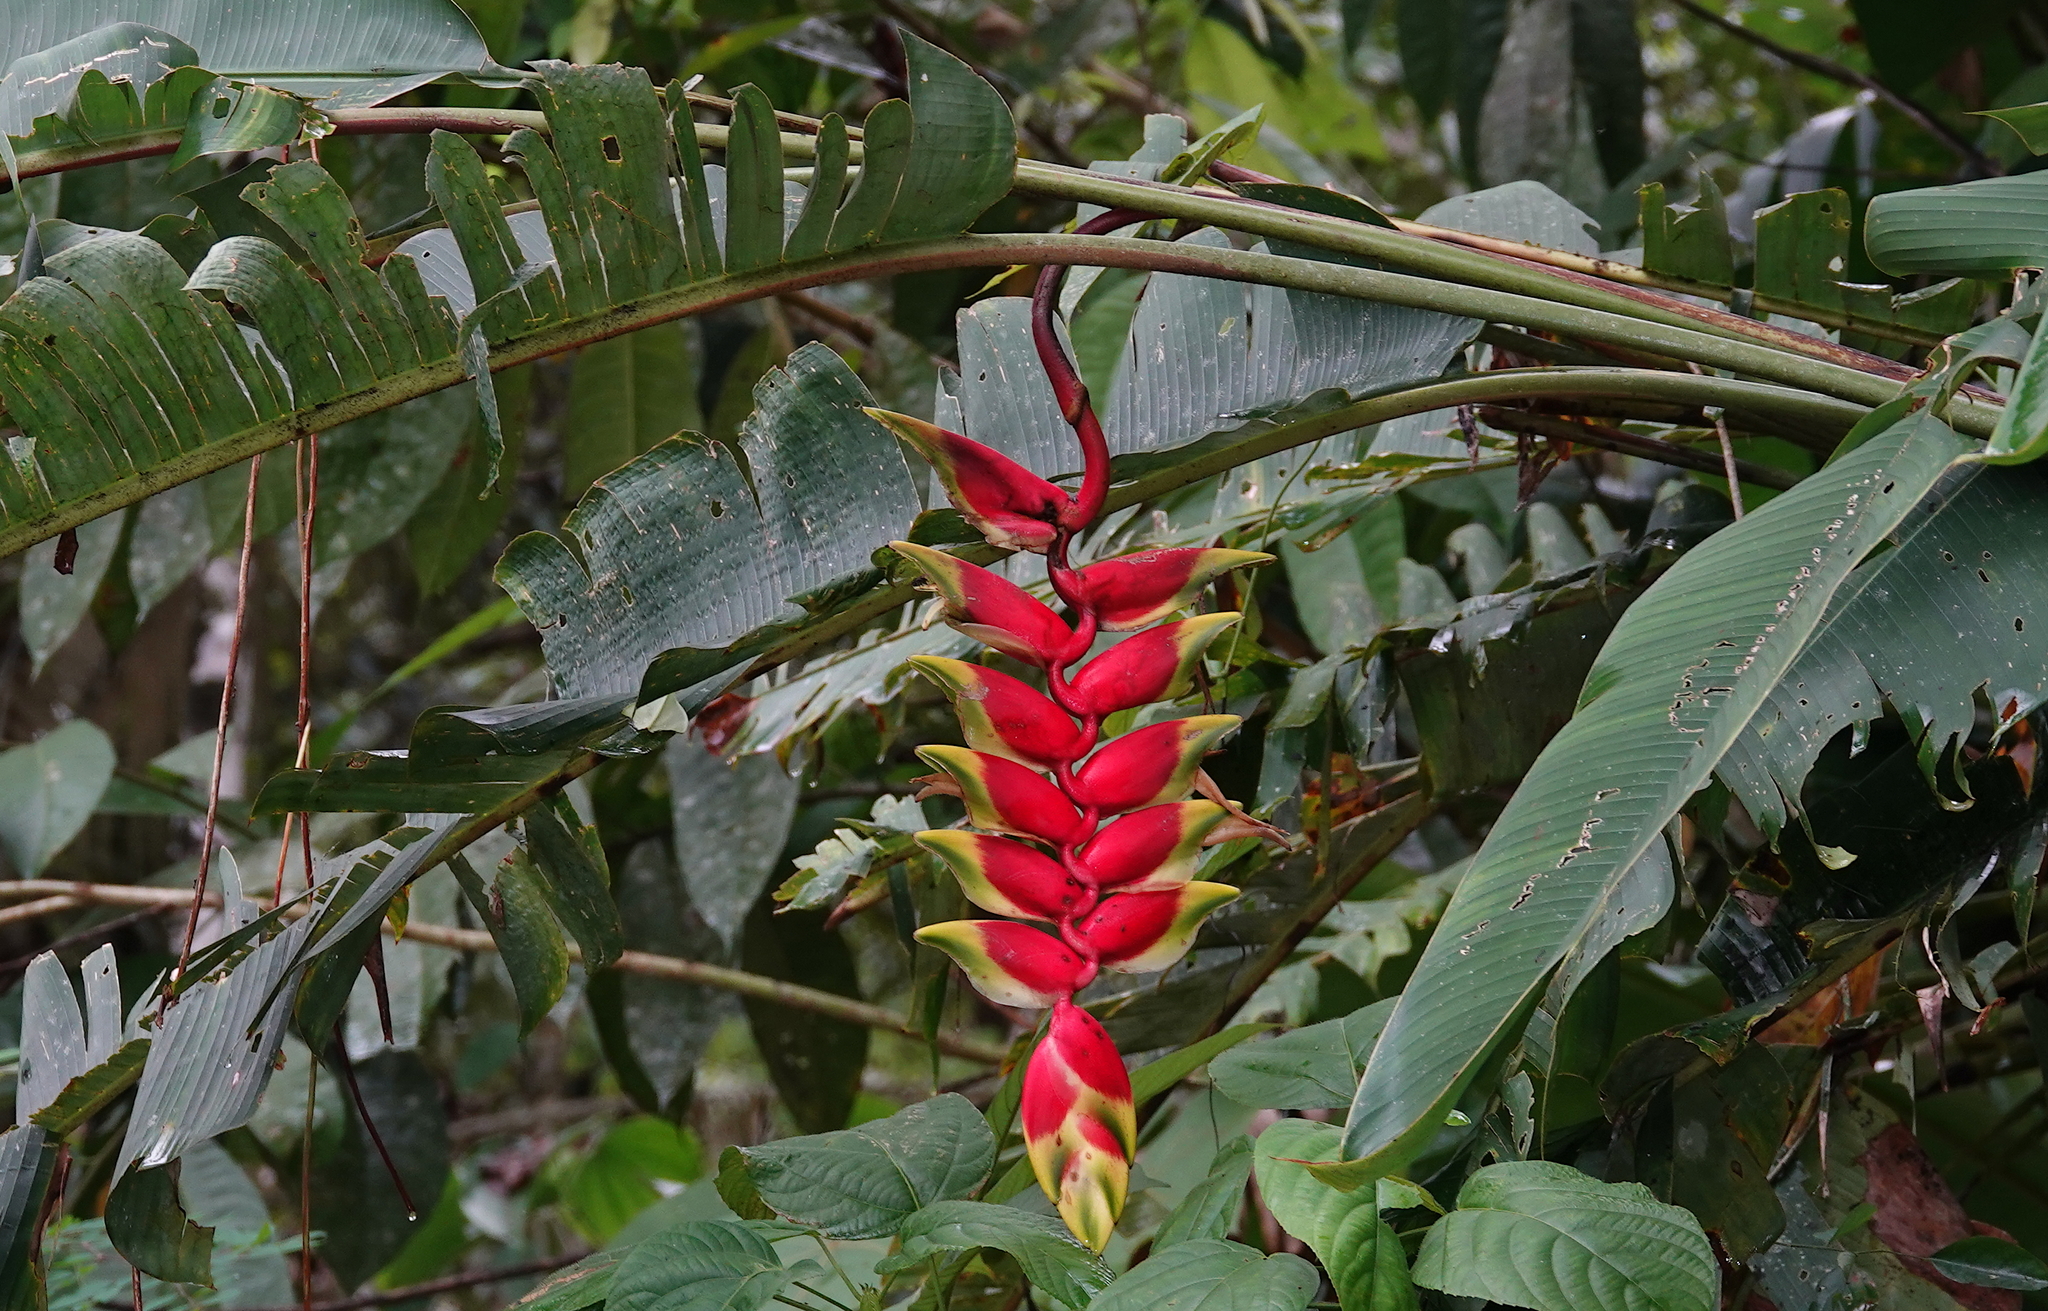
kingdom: Plantae
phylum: Tracheophyta
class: Liliopsida
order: Zingiberales
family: Heliconiaceae
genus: Heliconia
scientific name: Heliconia rostrata
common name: False bird of paradise
